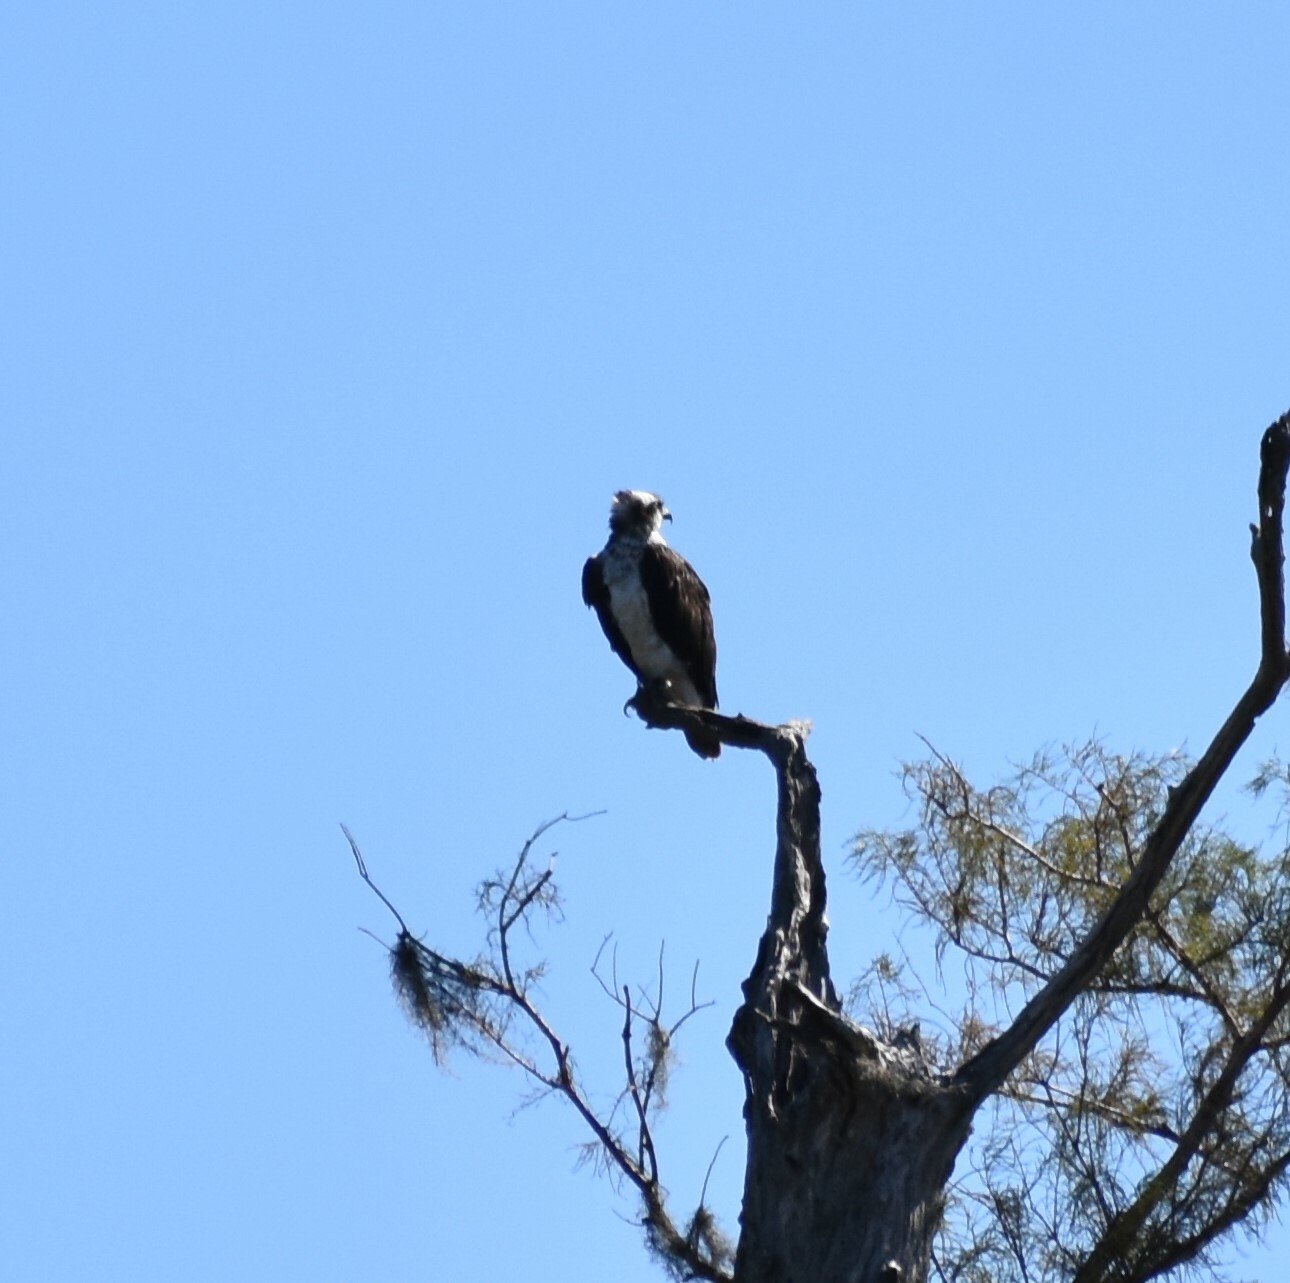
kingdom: Animalia
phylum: Chordata
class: Aves
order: Accipitriformes
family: Pandionidae
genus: Pandion
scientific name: Pandion haliaetus
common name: Osprey
